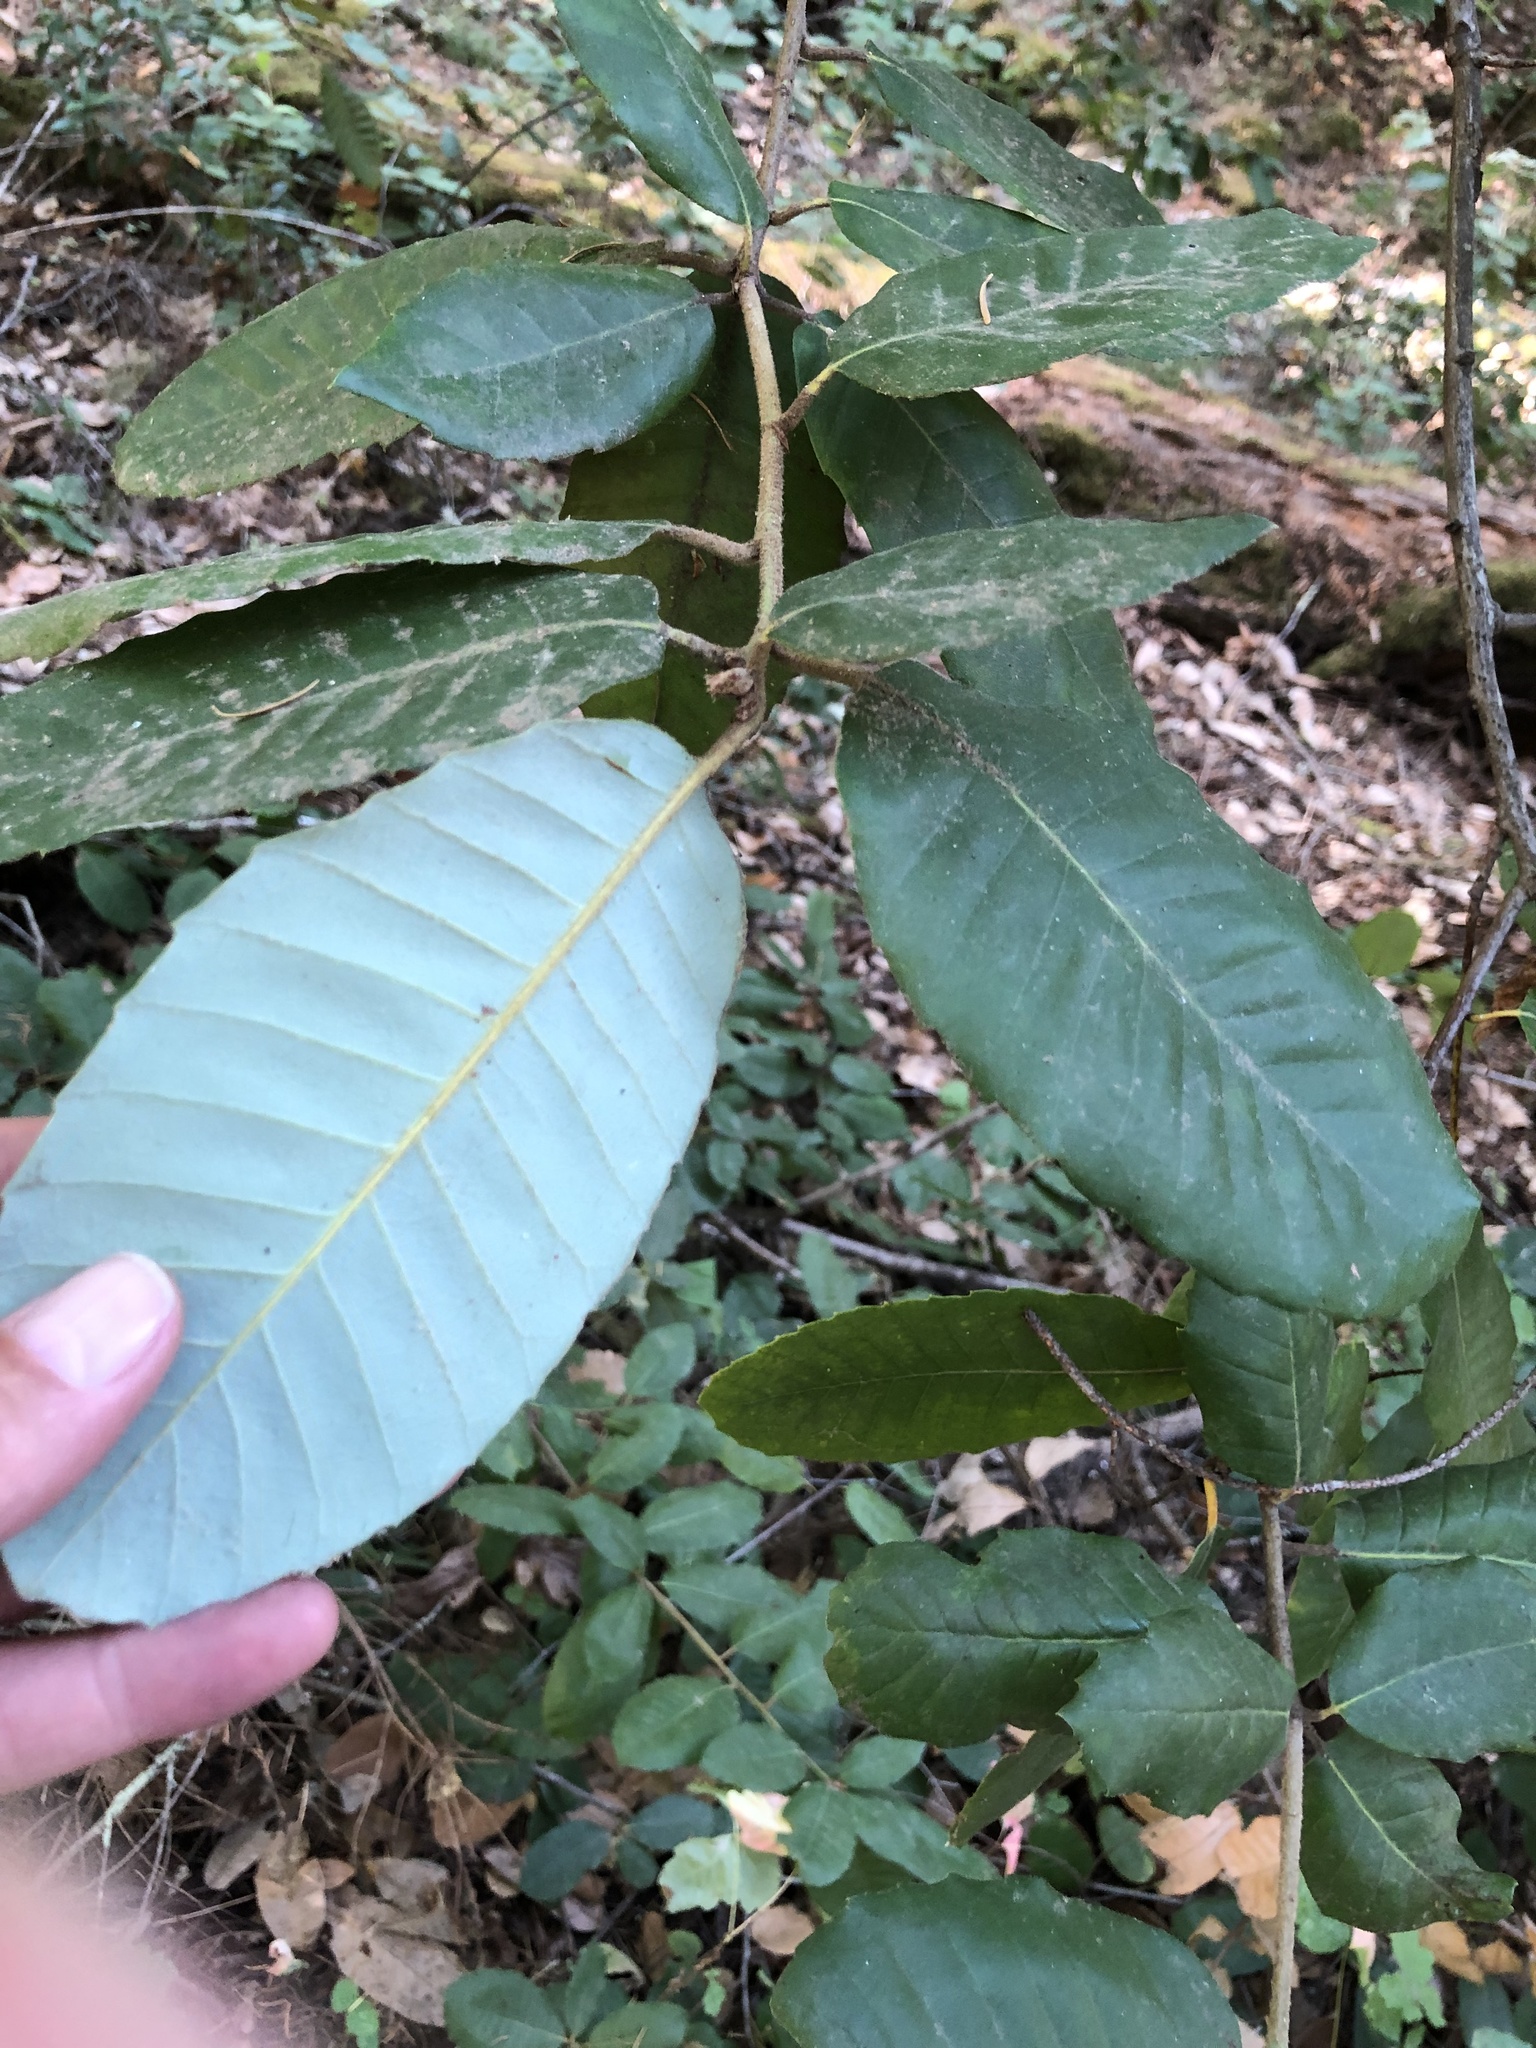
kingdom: Plantae
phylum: Tracheophyta
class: Magnoliopsida
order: Fagales
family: Fagaceae
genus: Notholithocarpus
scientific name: Notholithocarpus densiflorus
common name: Tan bark oak
